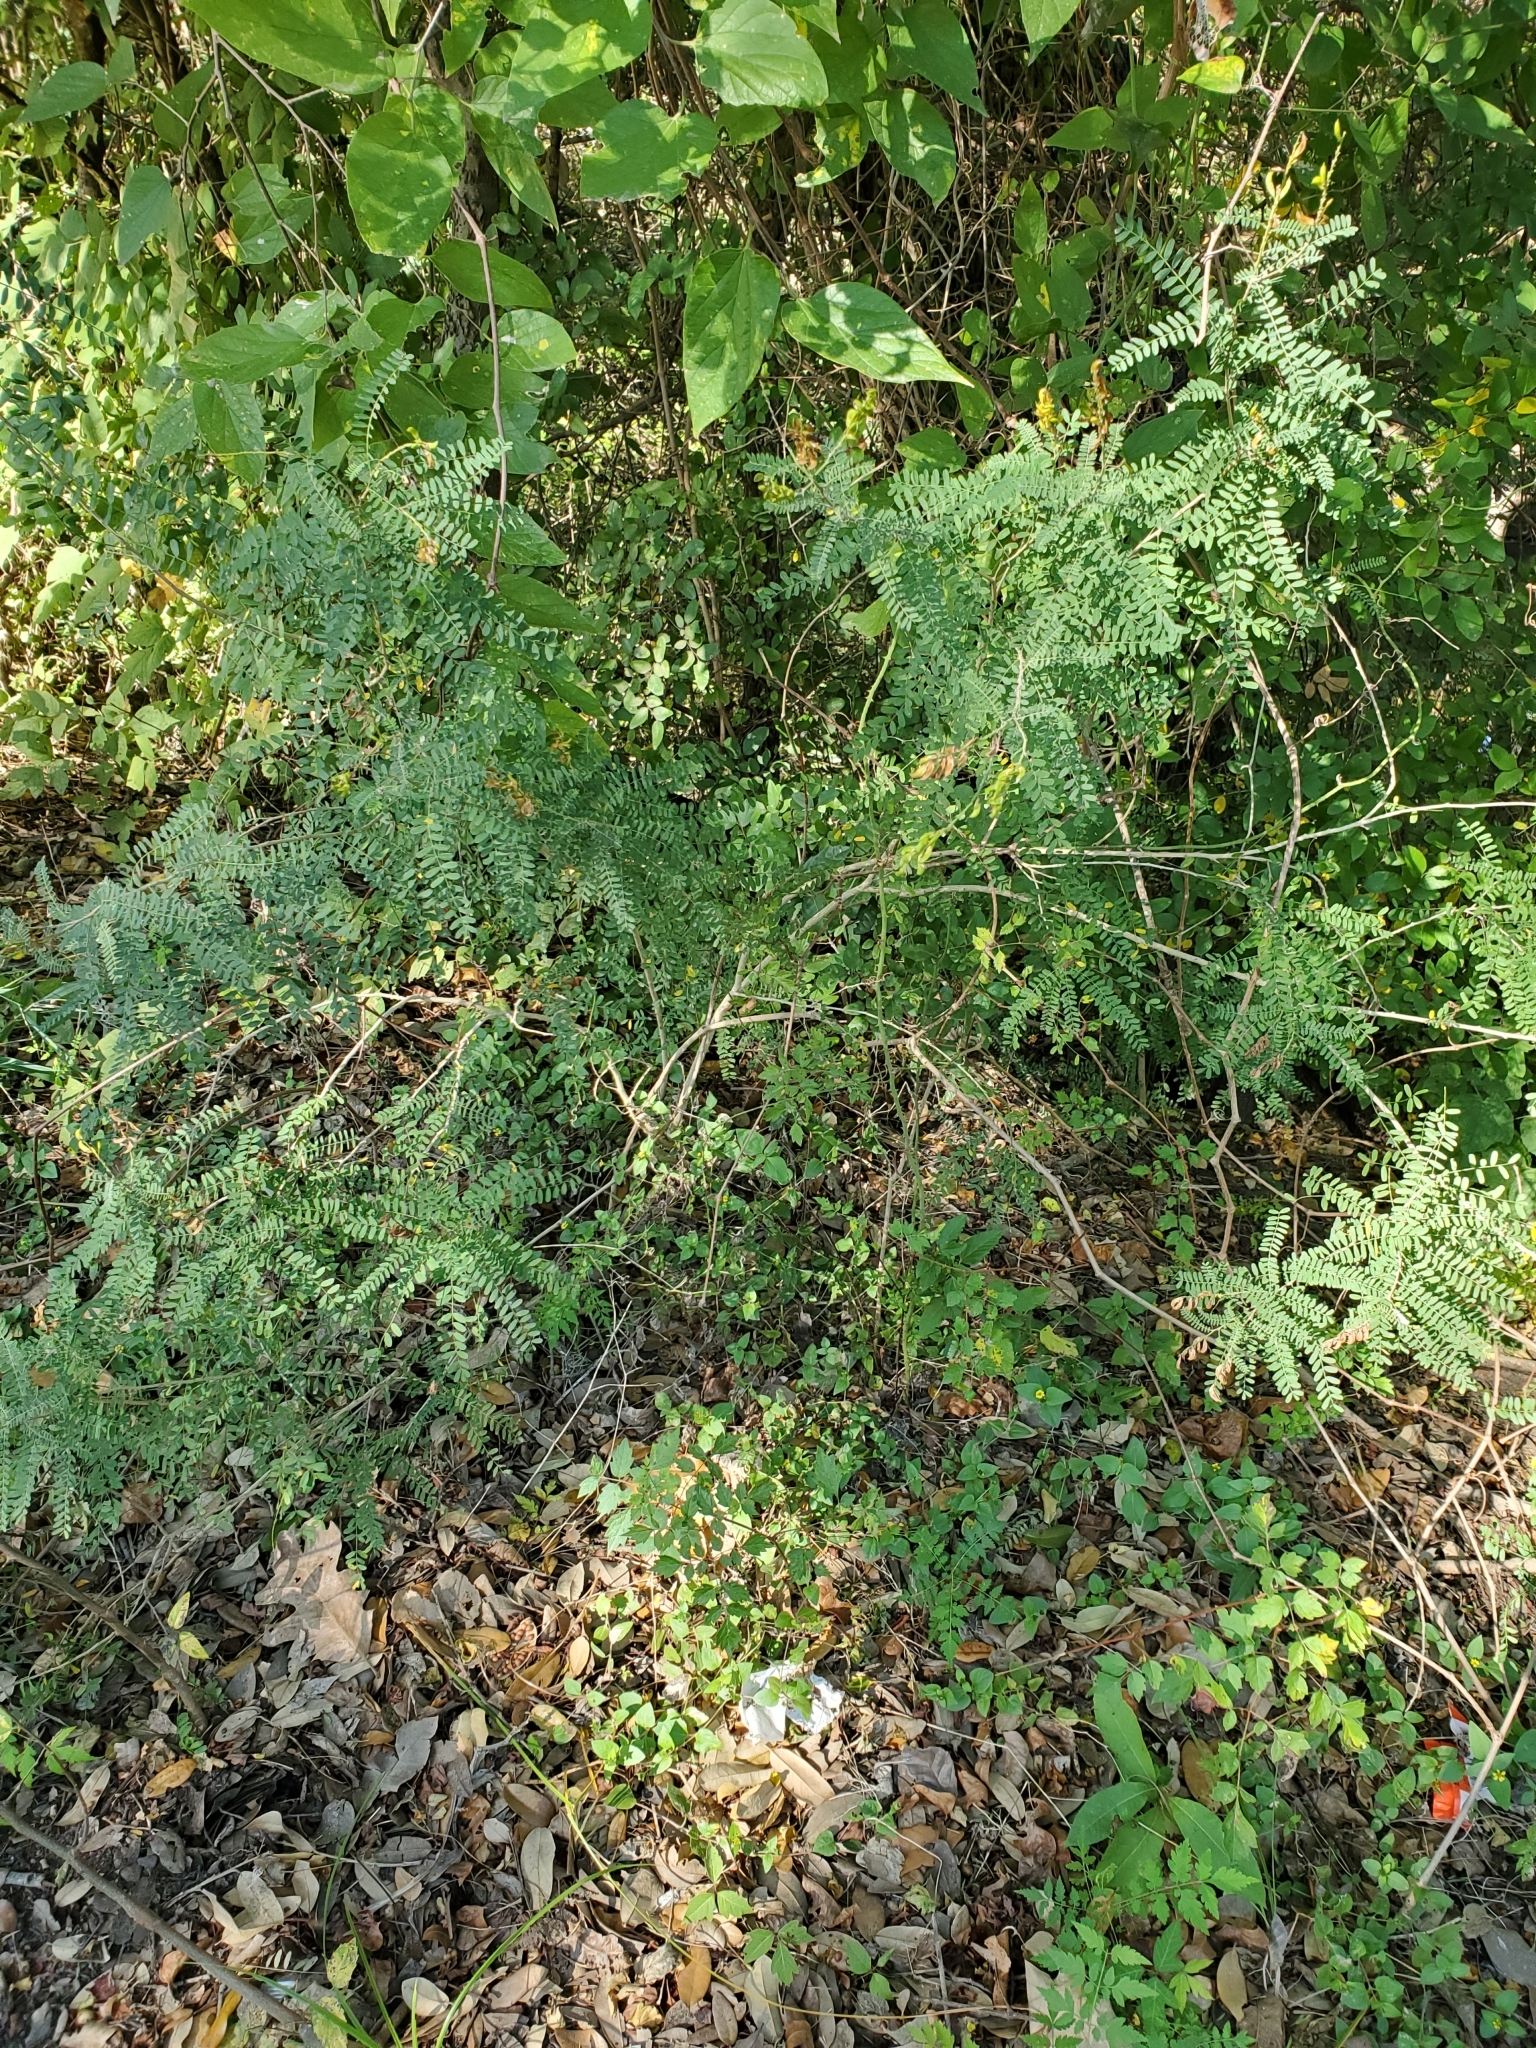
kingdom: Plantae
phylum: Tracheophyta
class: Magnoliopsida
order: Fabales
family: Fabaceae
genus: Eysenhardtia
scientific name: Eysenhardtia texana
